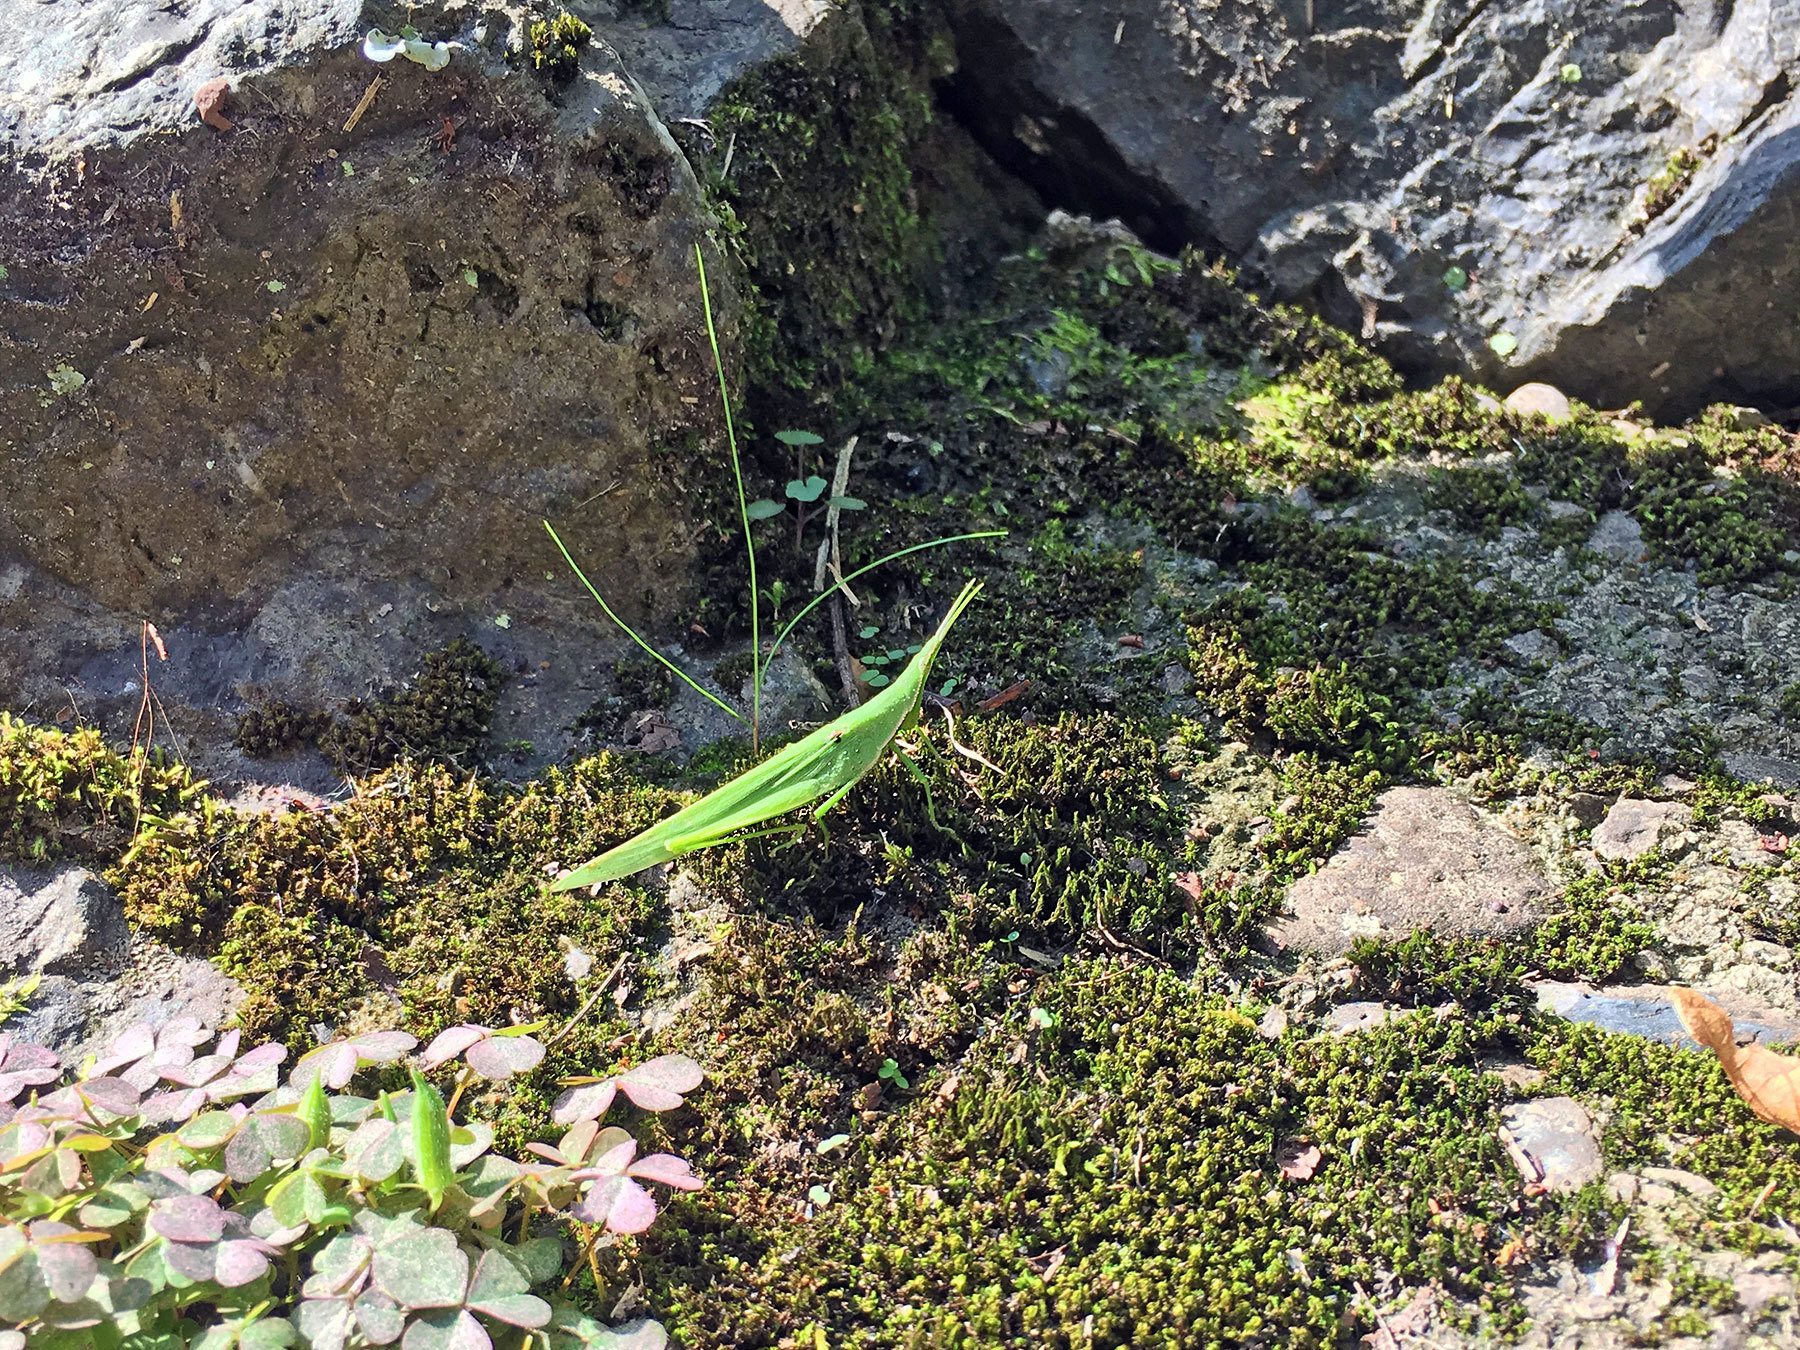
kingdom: Animalia
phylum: Arthropoda
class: Insecta
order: Orthoptera
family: Pyrgomorphidae
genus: Atractomorpha
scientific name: Atractomorpha lata
